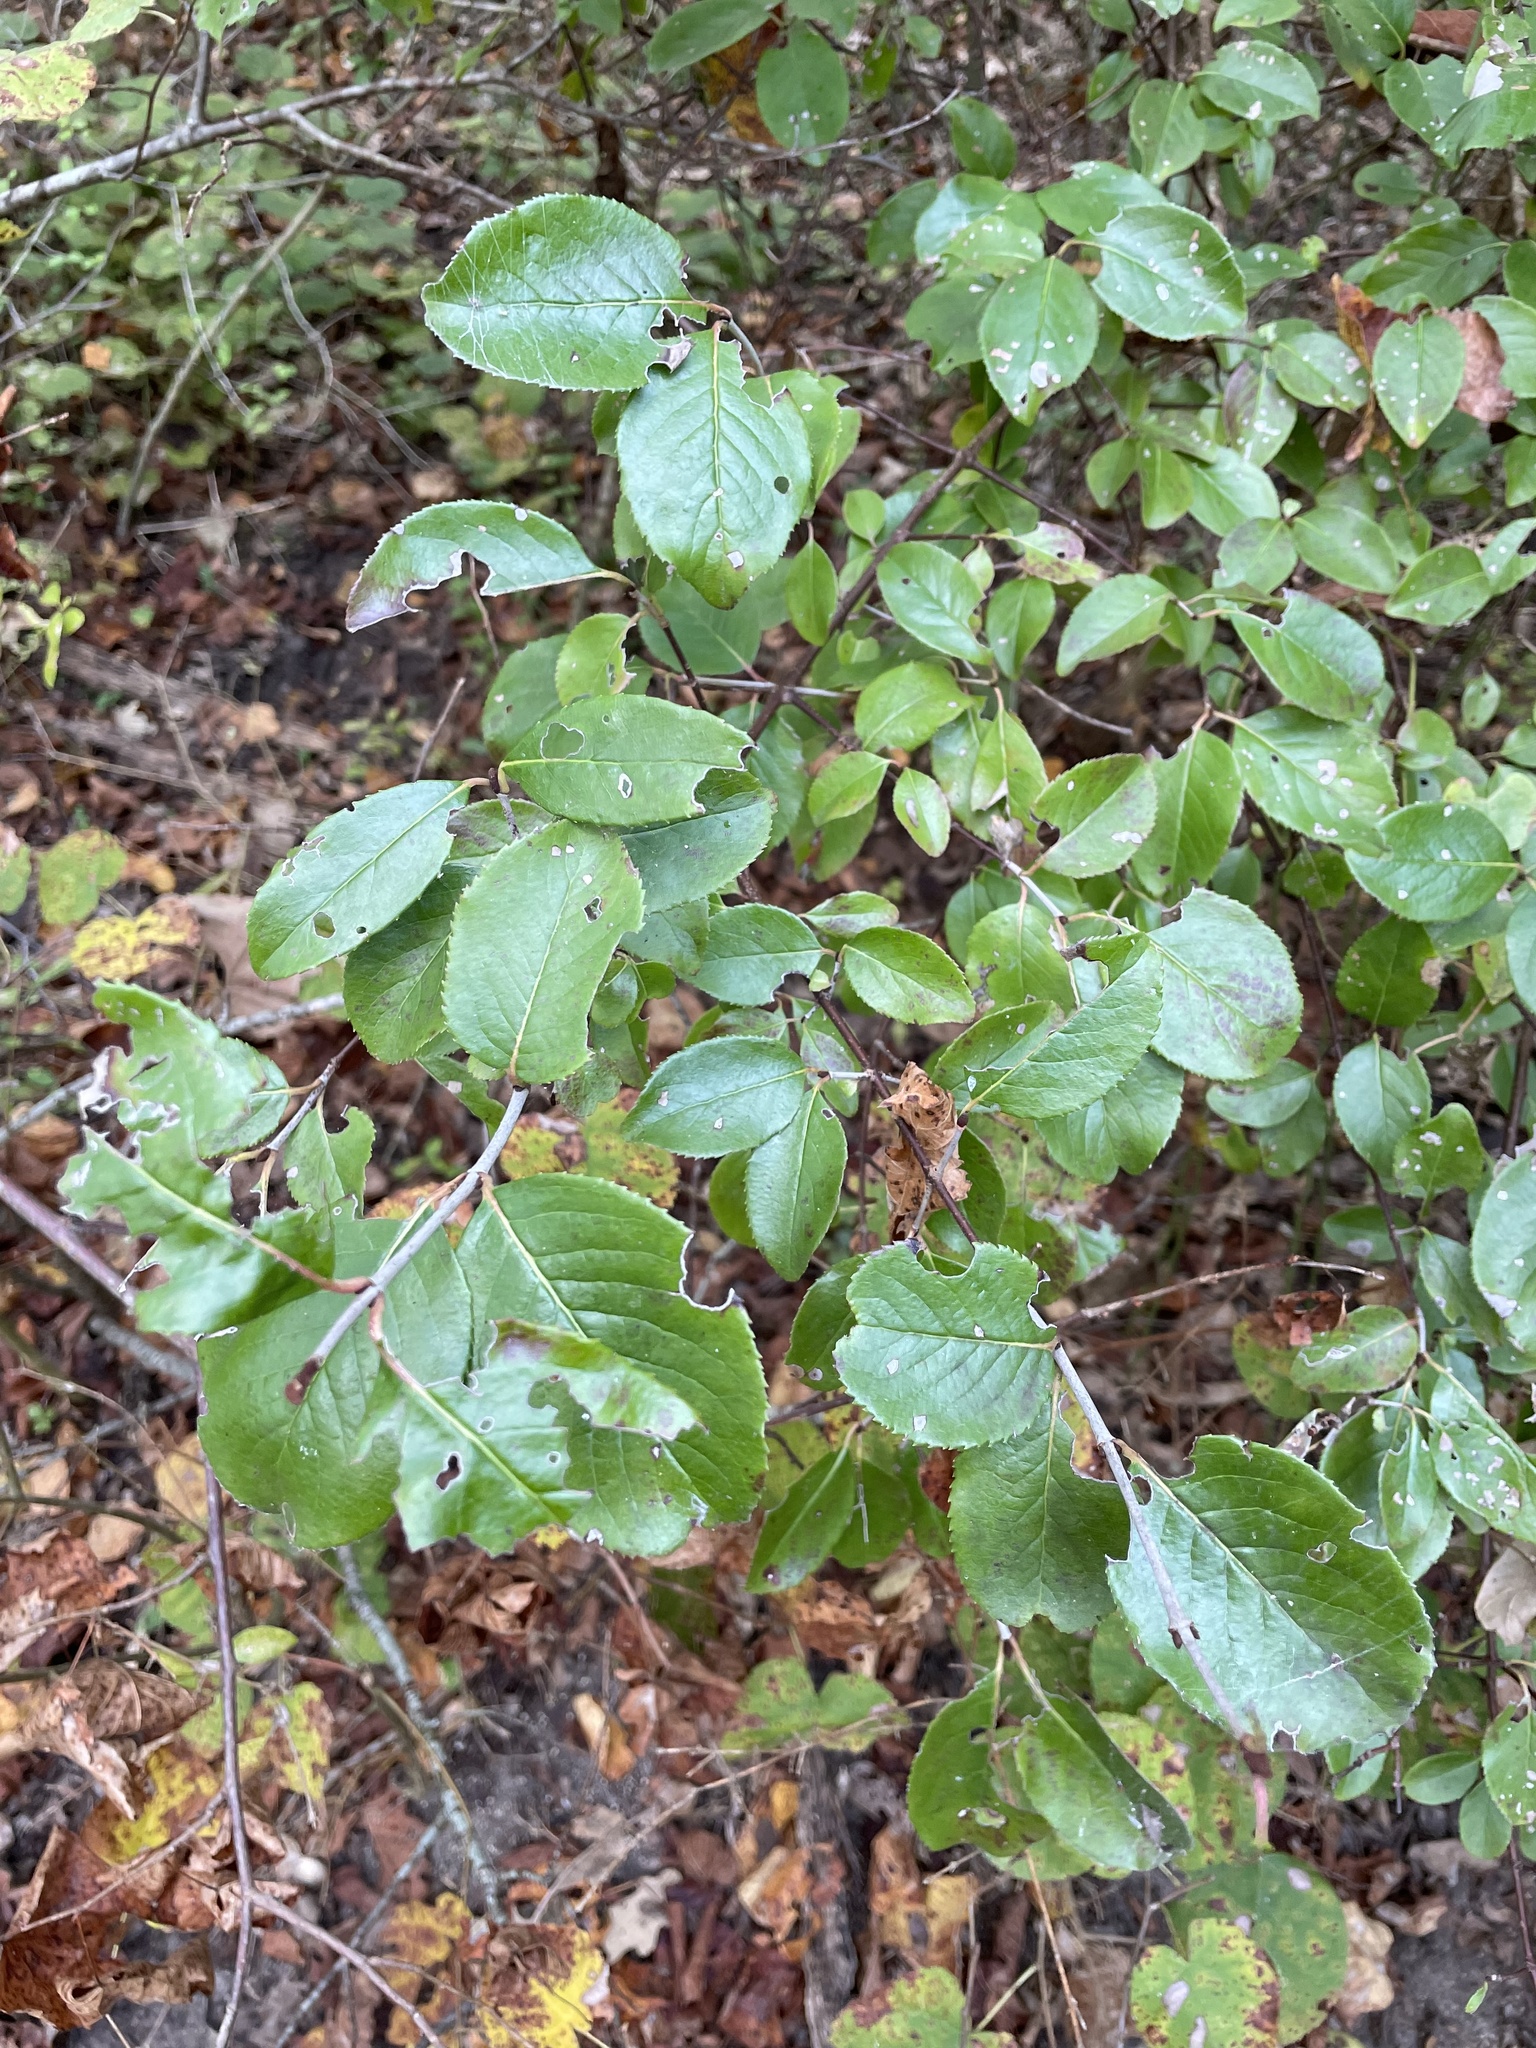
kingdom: Plantae
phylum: Tracheophyta
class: Magnoliopsida
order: Dipsacales
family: Viburnaceae
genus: Viburnum
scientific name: Viburnum rufidulum
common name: Blue haw
